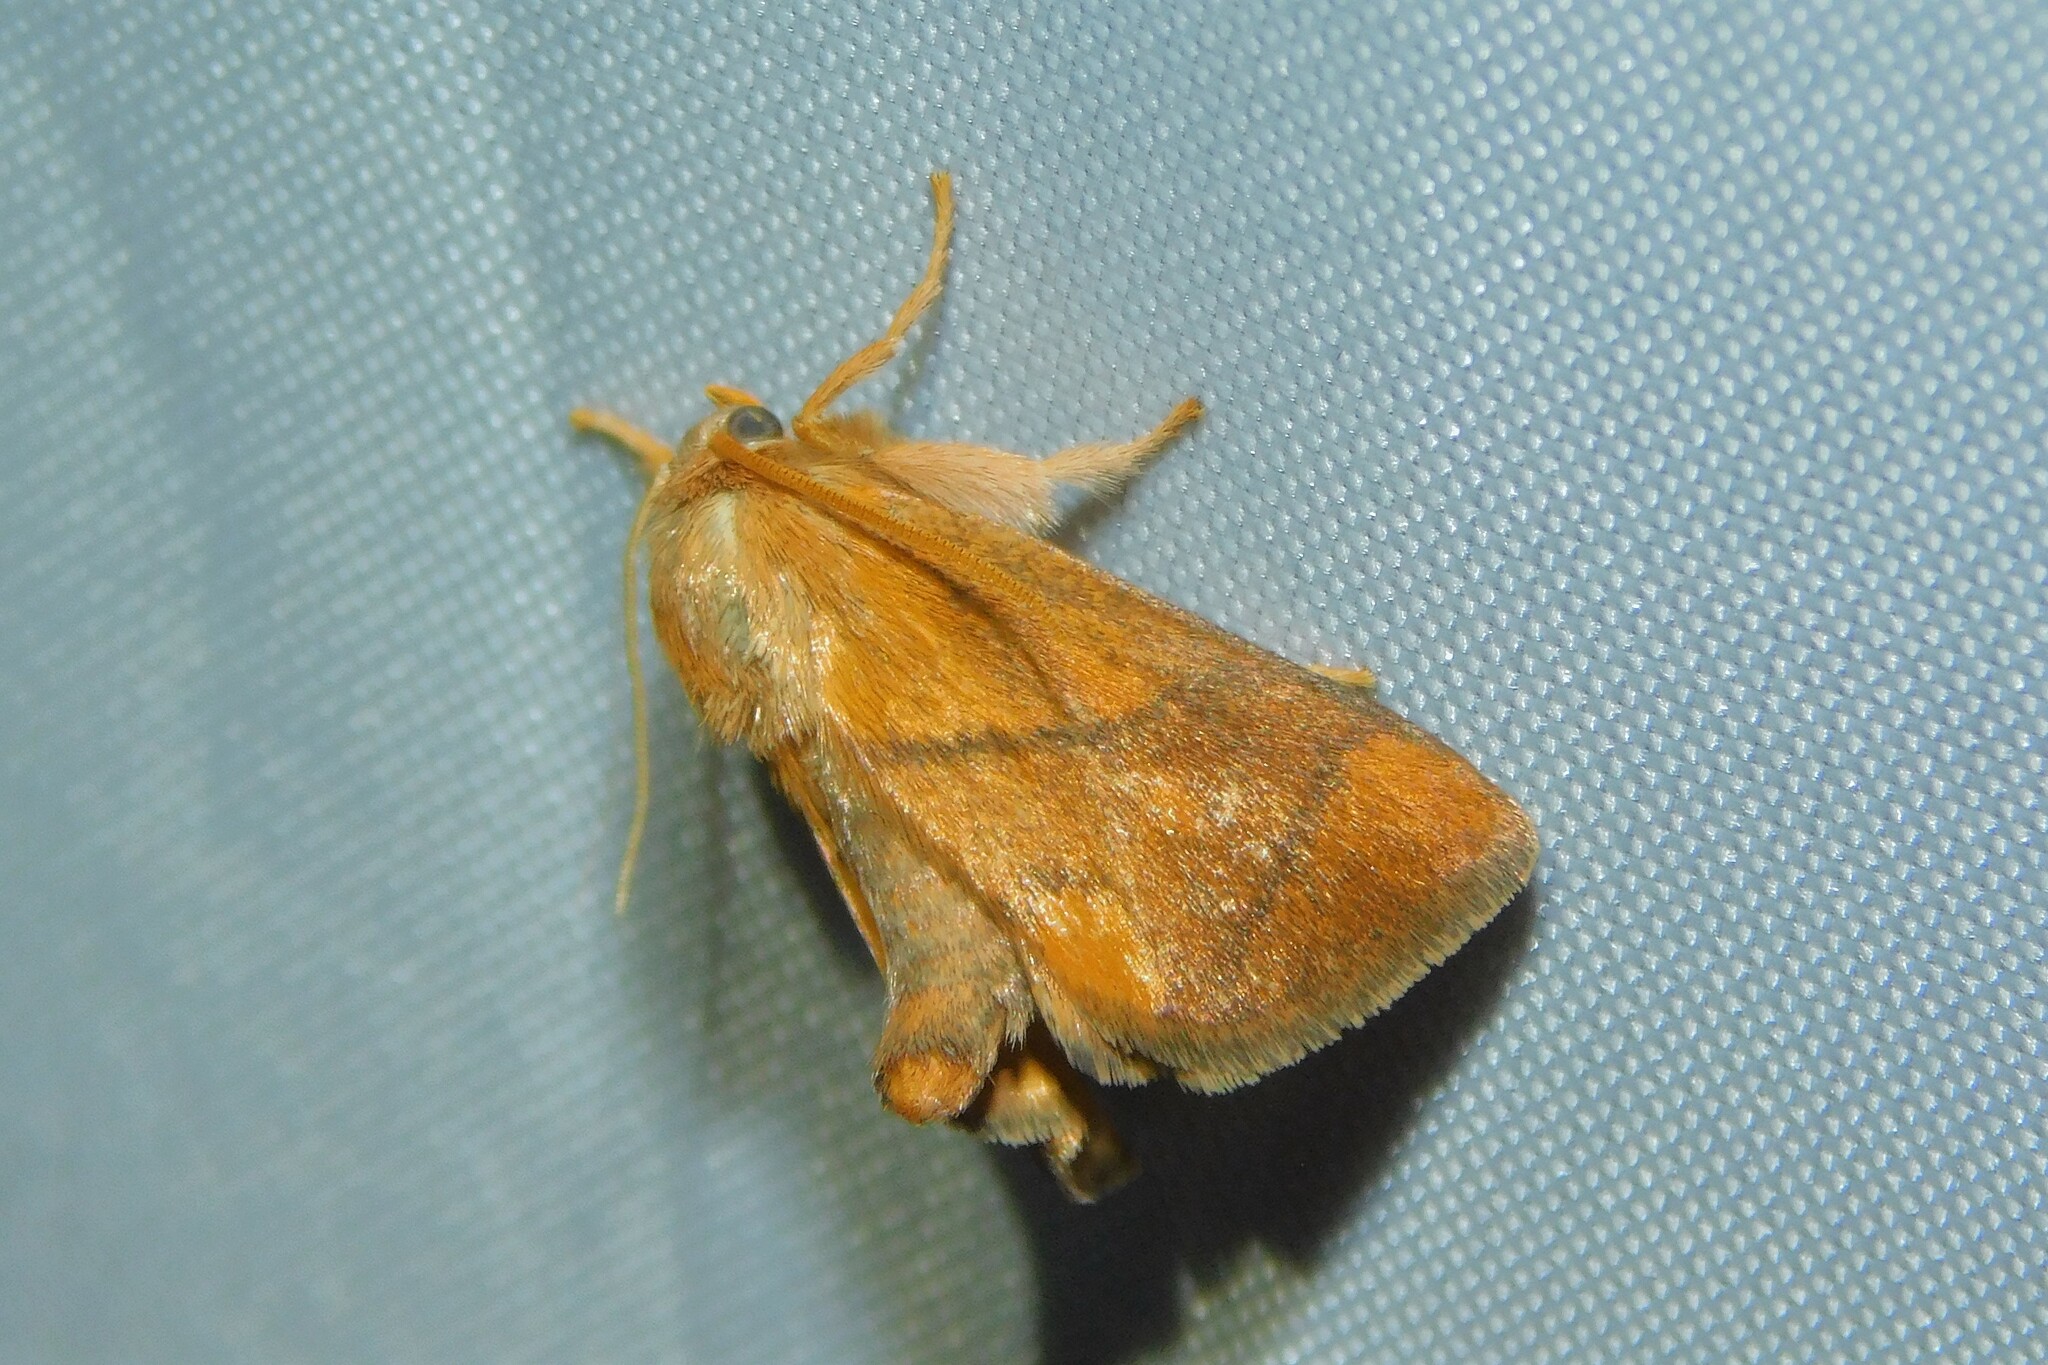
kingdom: Animalia
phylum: Arthropoda
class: Insecta
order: Lepidoptera
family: Limacodidae
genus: Apoda
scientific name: Apoda limacodes
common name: Festoon
